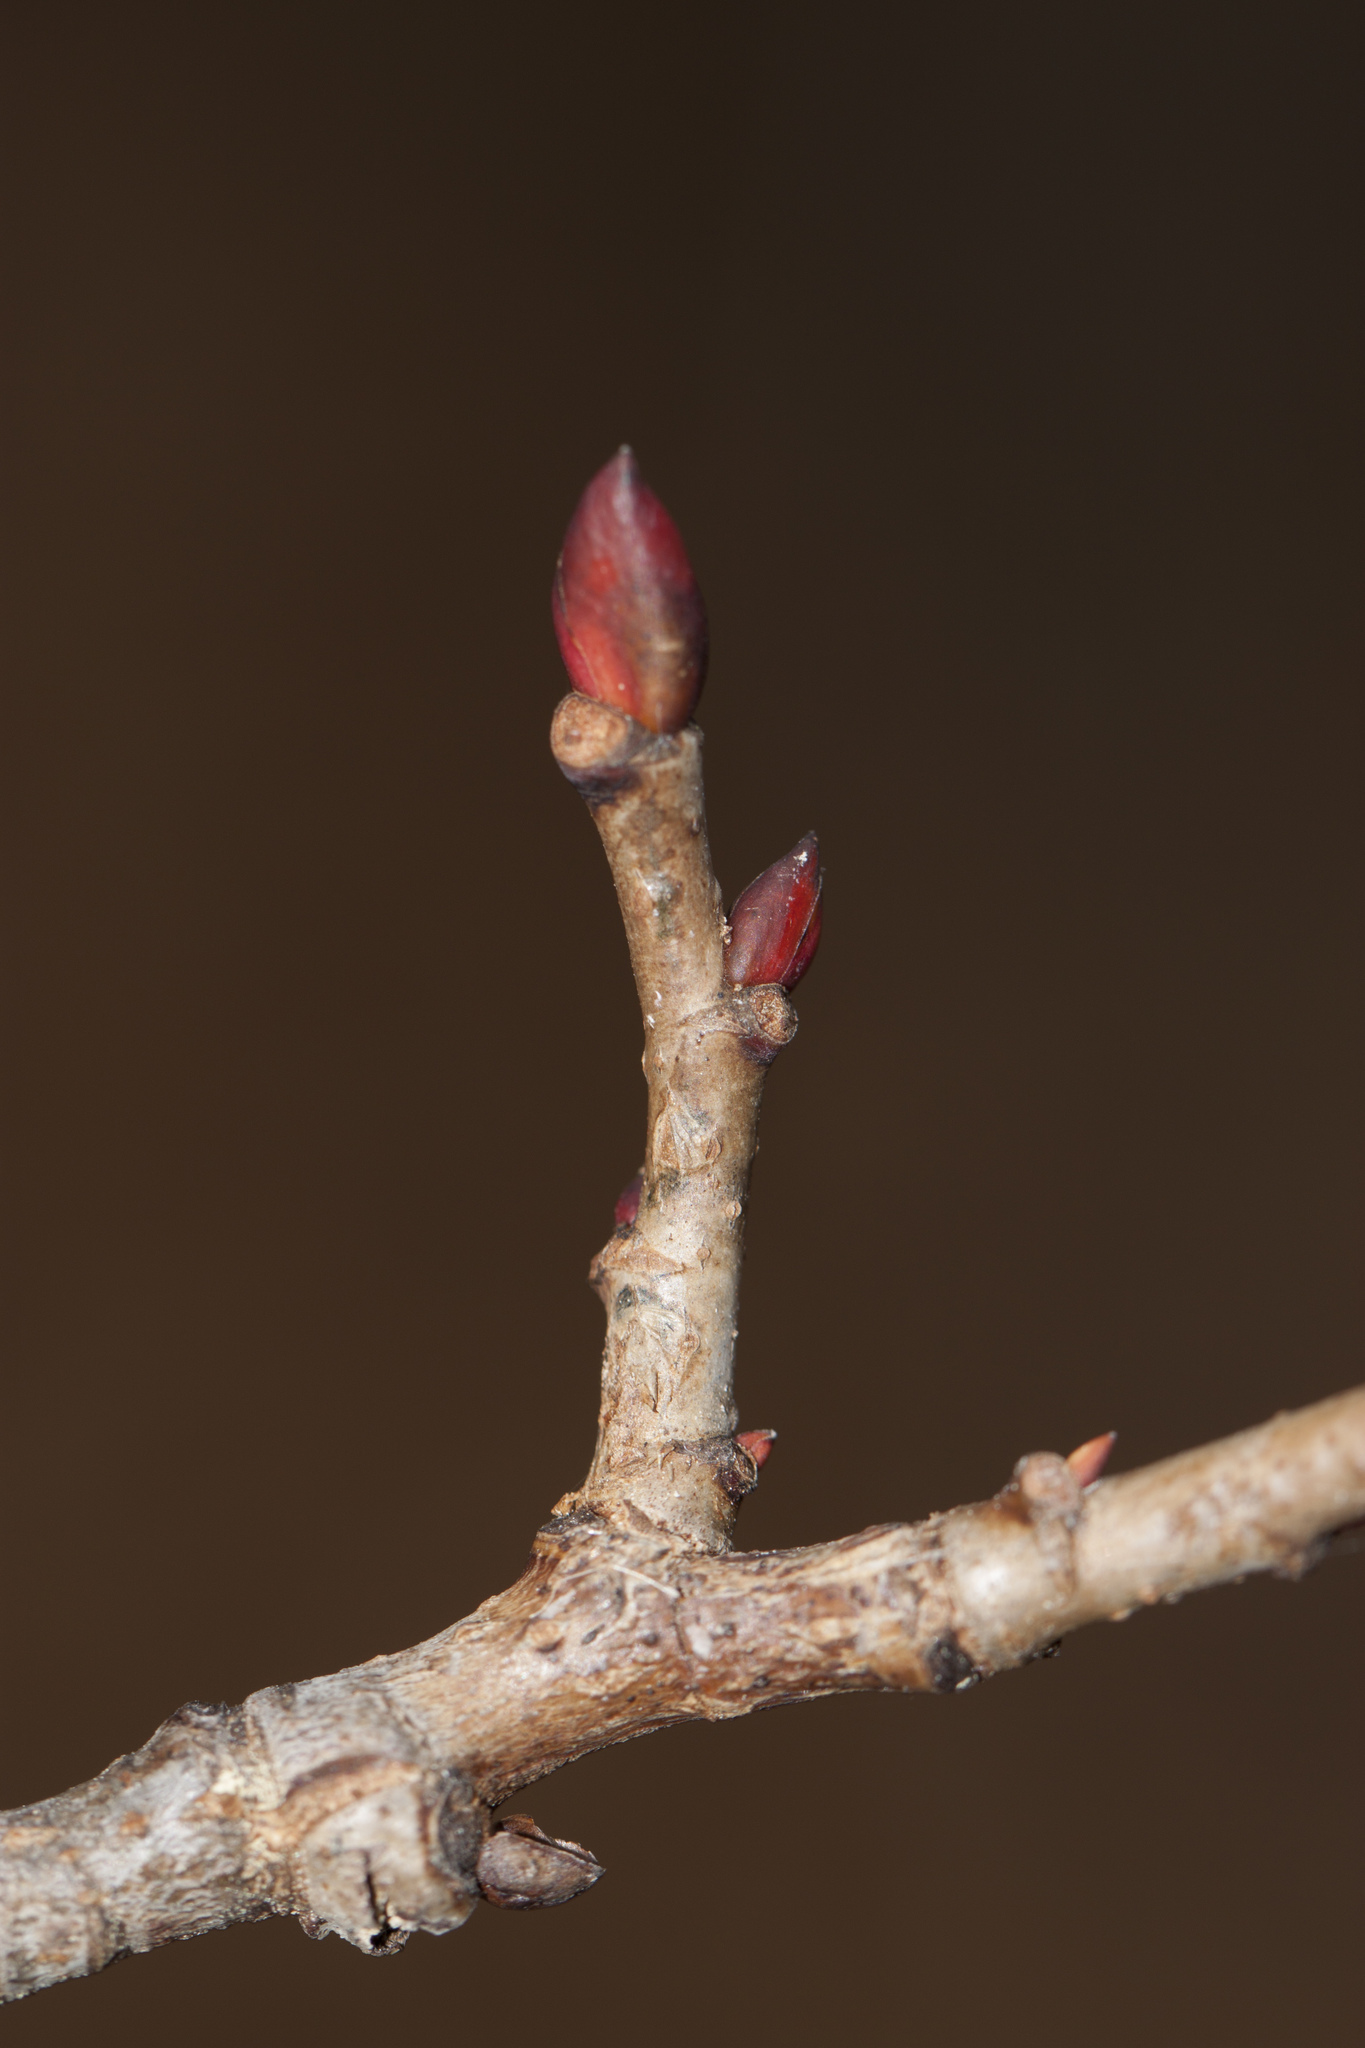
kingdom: Plantae
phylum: Tracheophyta
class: Magnoliopsida
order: Malvales
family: Malvaceae
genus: Tilia
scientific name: Tilia americana
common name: Basswood
